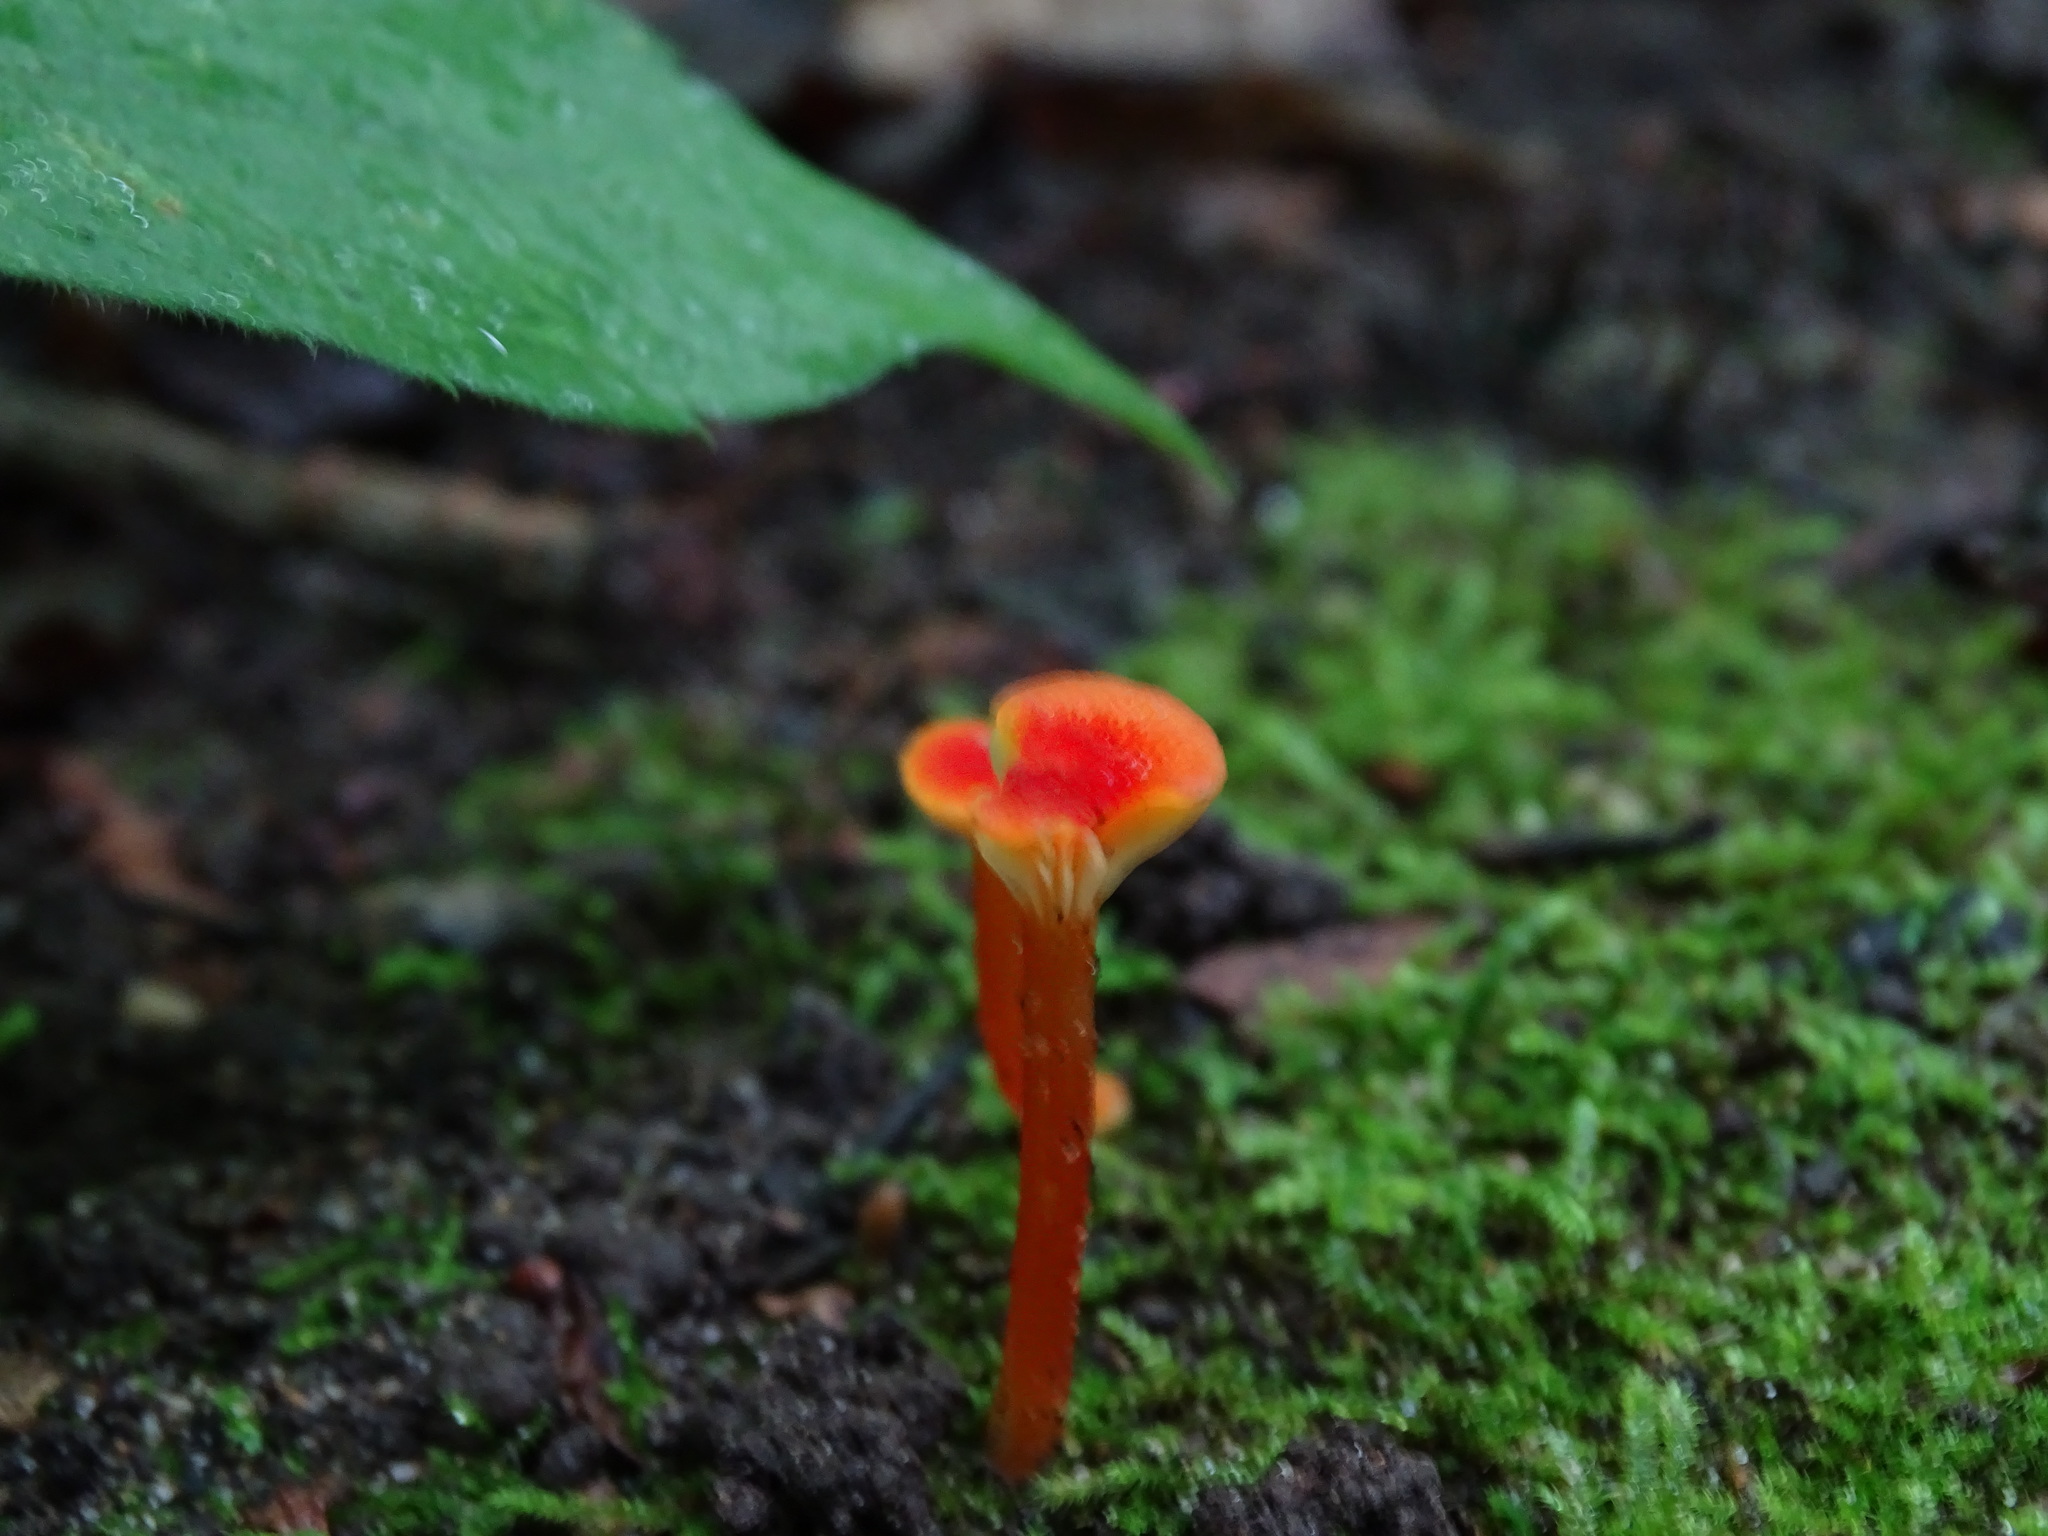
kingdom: Fungi
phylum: Basidiomycota
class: Agaricomycetes
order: Agaricales
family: Hygrophoraceae
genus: Hygrocybe
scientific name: Hygrocybe cantharellus
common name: Goblet waxcap
